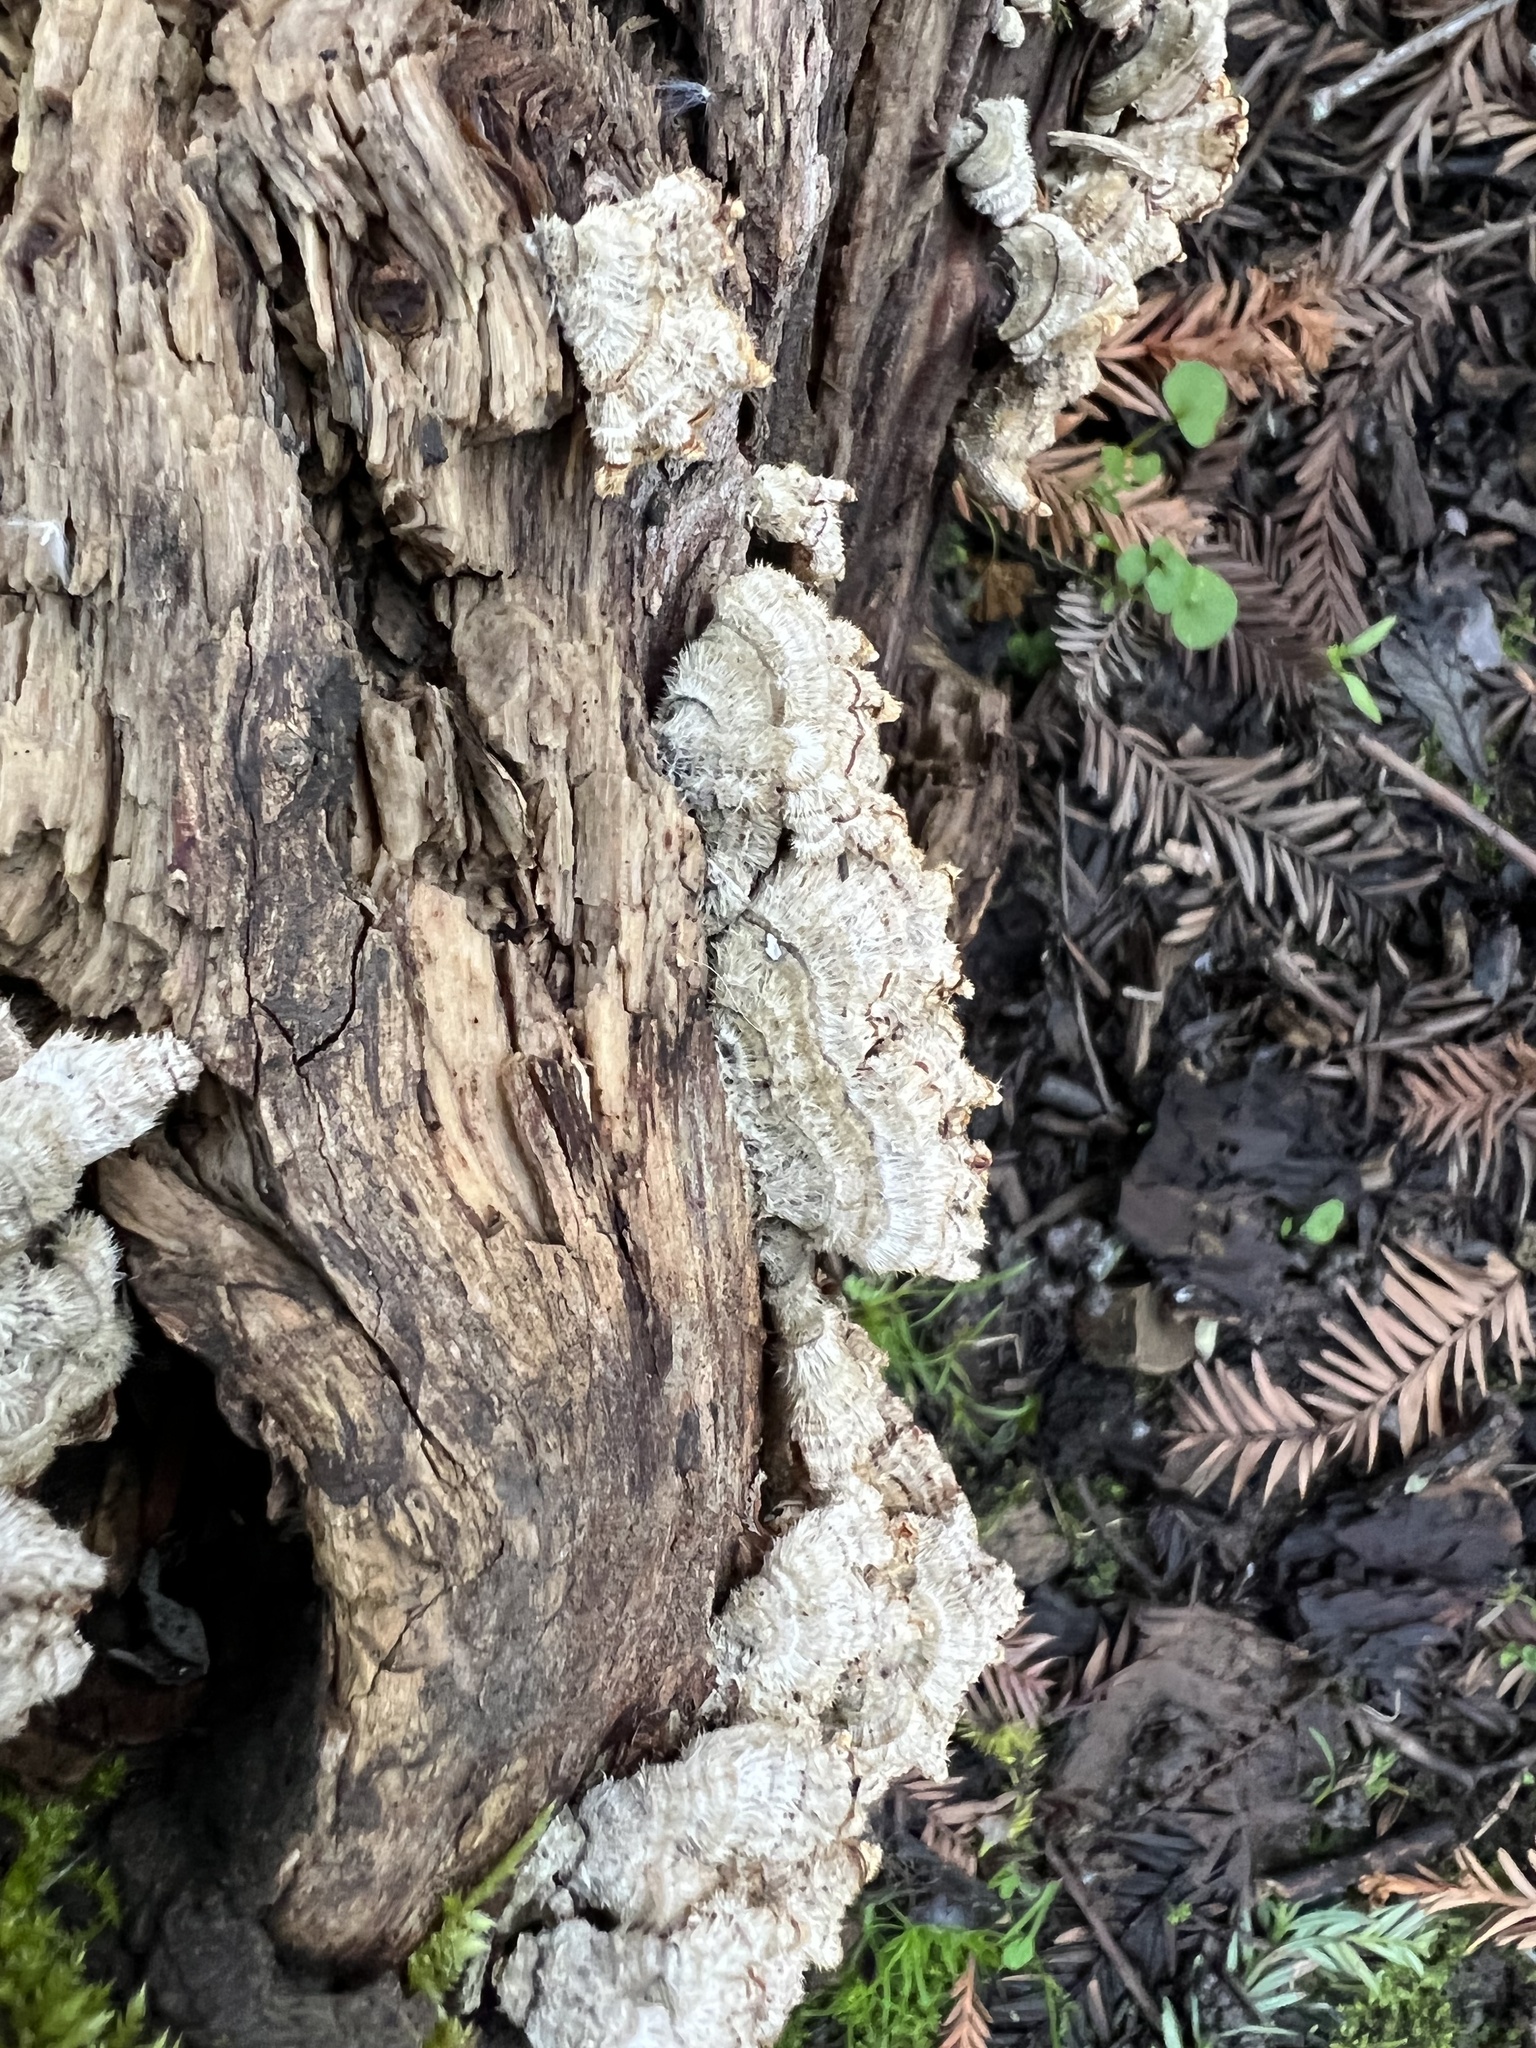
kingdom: Fungi
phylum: Basidiomycota
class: Agaricomycetes
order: Russulales
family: Stereaceae
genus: Stereum
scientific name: Stereum hirsutum
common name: Hairy curtain crust
